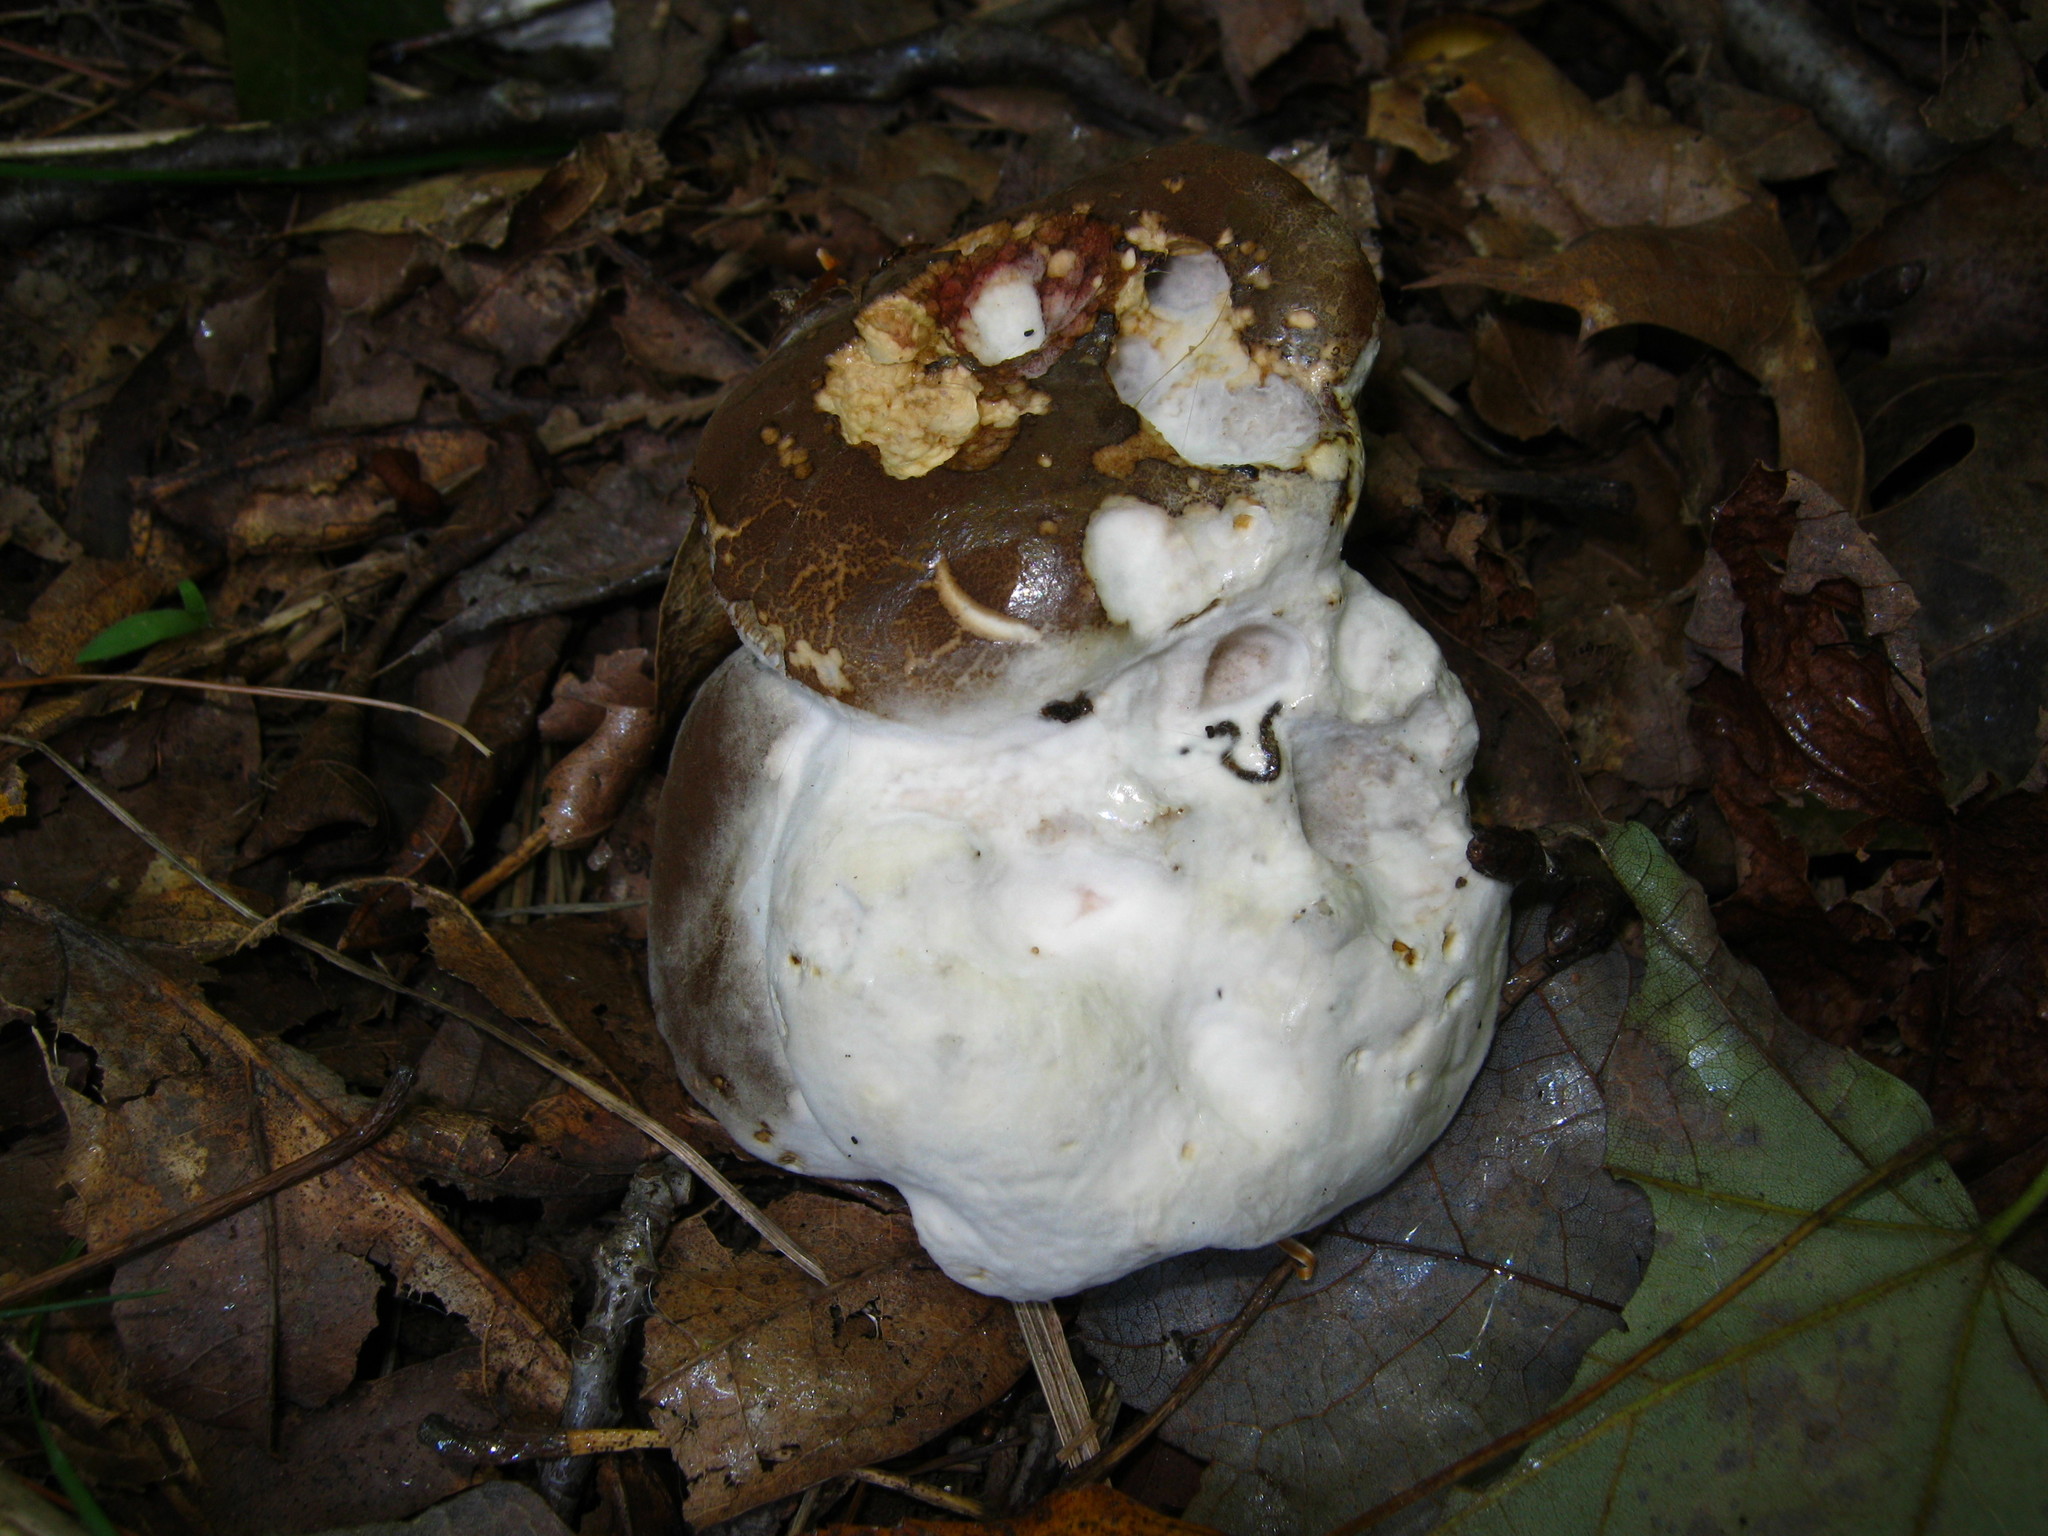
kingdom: Fungi
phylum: Ascomycota
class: Sordariomycetes
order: Hypocreales
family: Hypocreaceae
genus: Hypomyces
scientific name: Hypomyces chrysospermus
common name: Bolete mould
